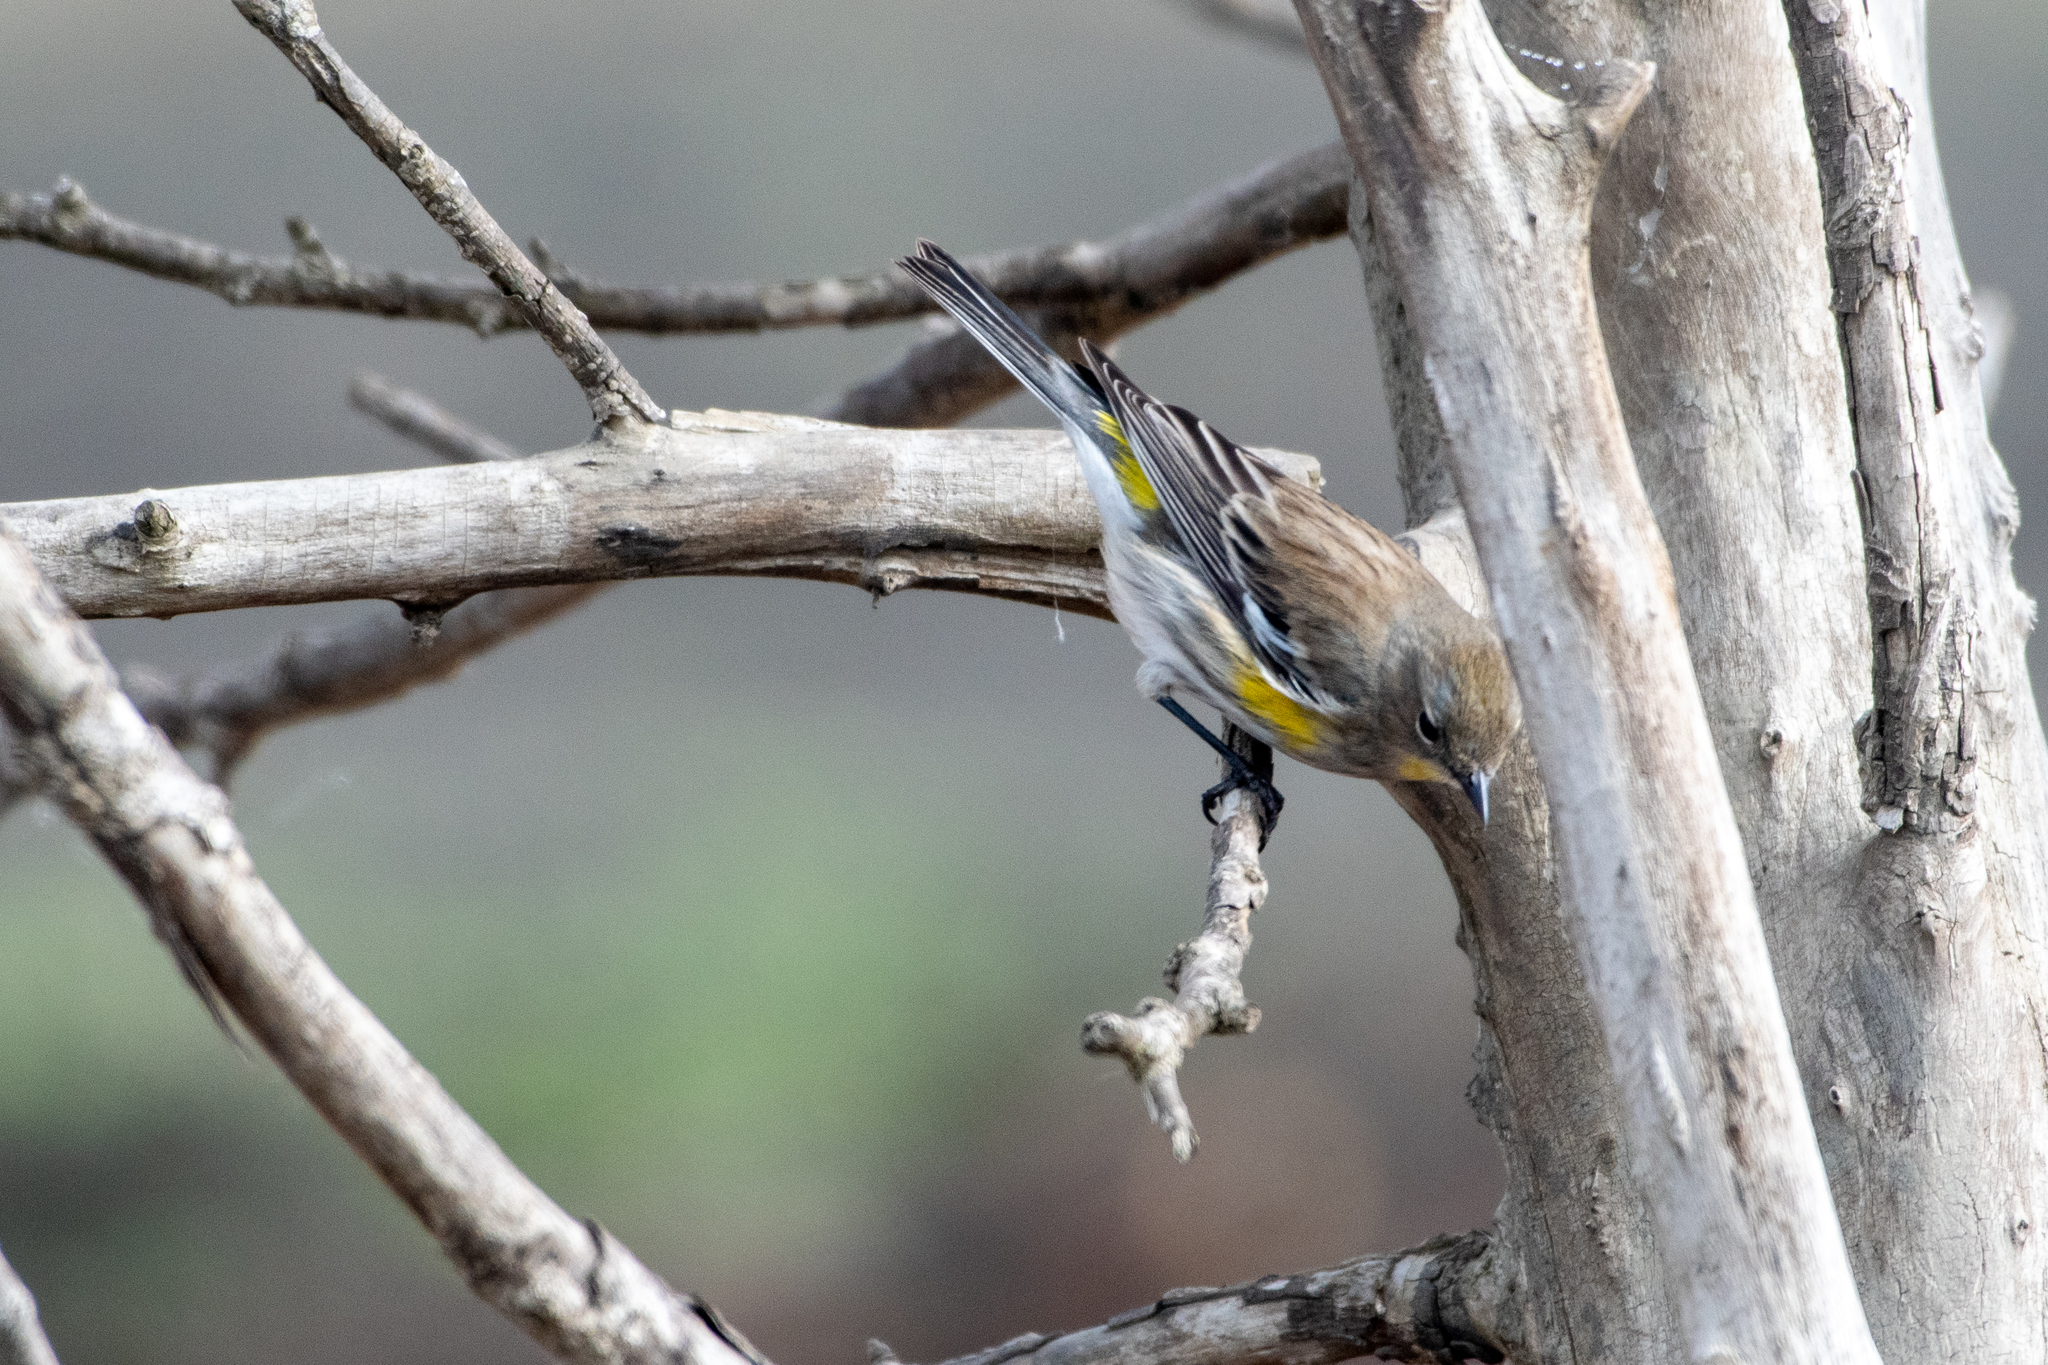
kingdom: Animalia
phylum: Chordata
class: Aves
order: Passeriformes
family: Parulidae
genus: Setophaga
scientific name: Setophaga coronata
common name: Myrtle warbler
